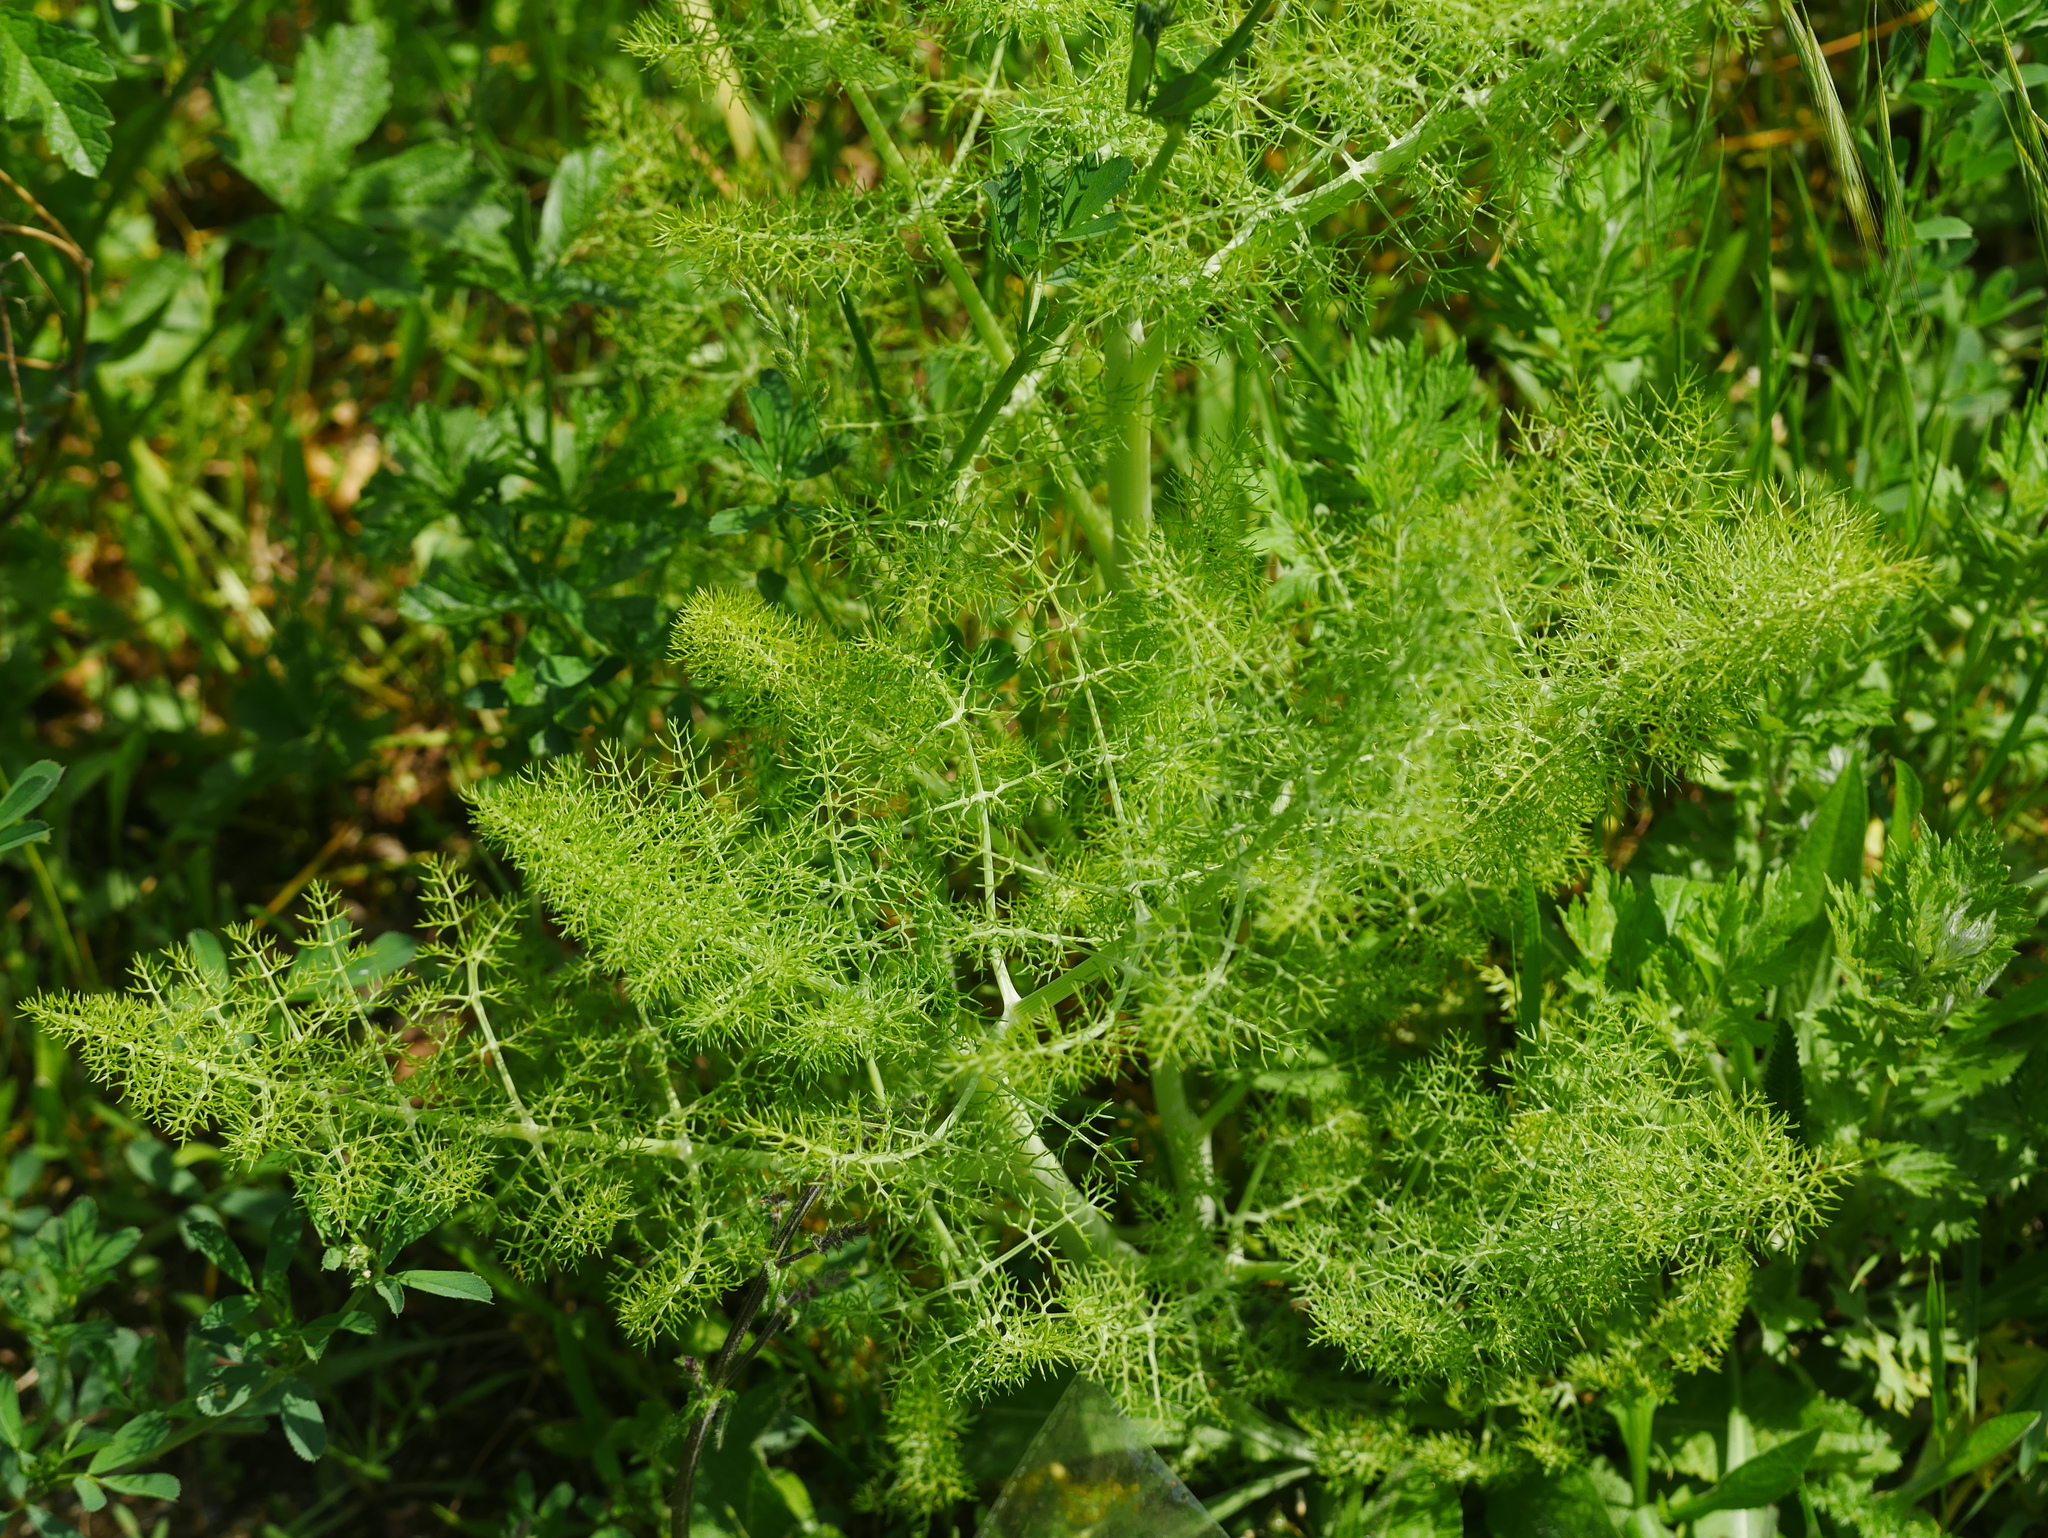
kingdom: Plantae
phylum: Tracheophyta
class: Magnoliopsida
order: Apiales
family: Apiaceae
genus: Foeniculum
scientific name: Foeniculum vulgare
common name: Fennel
